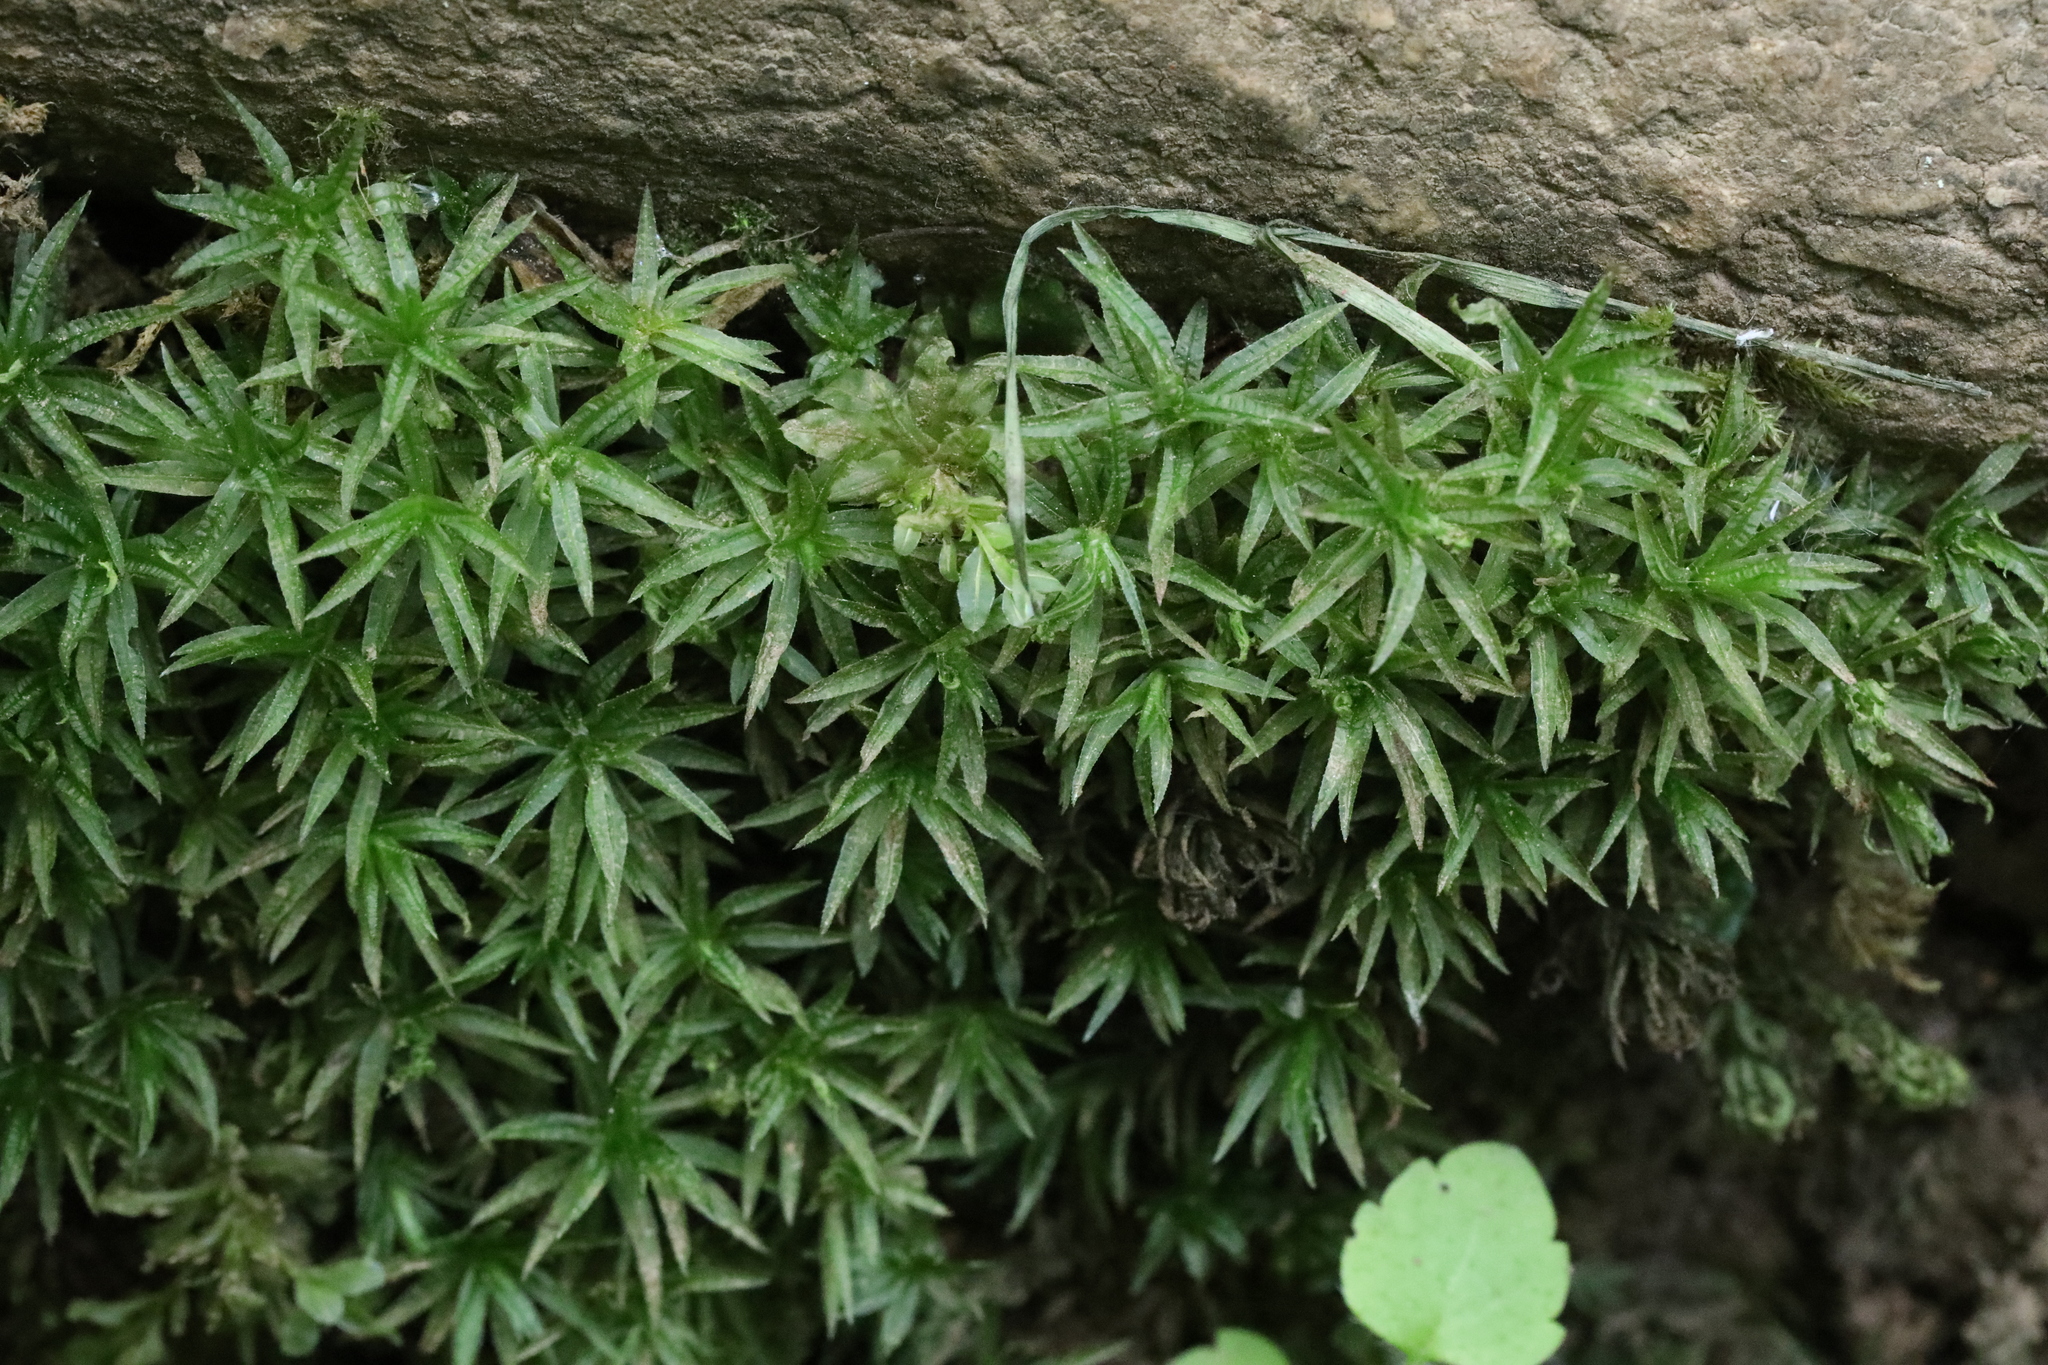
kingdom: Plantae
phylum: Bryophyta
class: Polytrichopsida
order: Polytrichales
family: Polytrichaceae
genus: Atrichum
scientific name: Atrichum undulatum
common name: Common smoothcap
